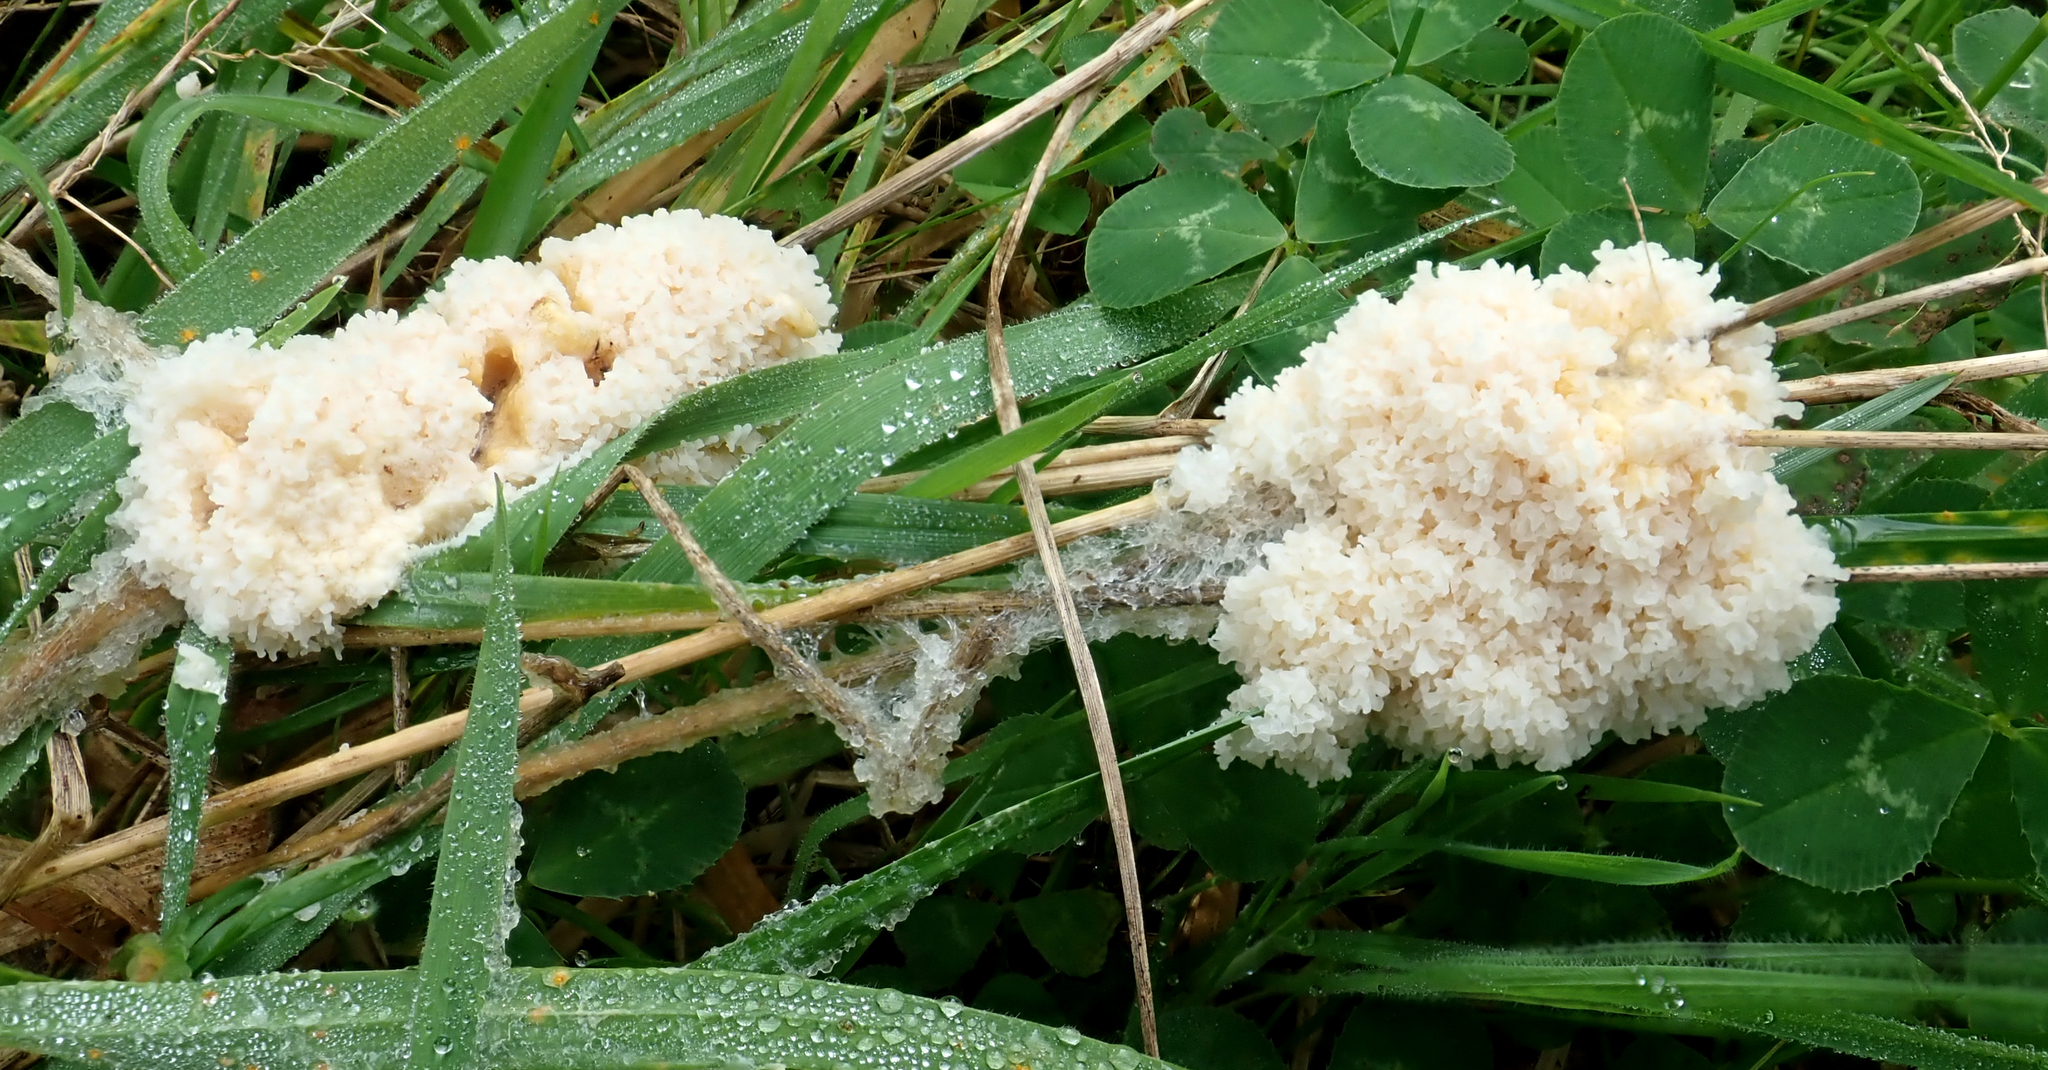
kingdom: Protozoa
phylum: Mycetozoa
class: Myxomycetes
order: Physarales
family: Physaraceae
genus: Didymium
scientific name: Didymium
